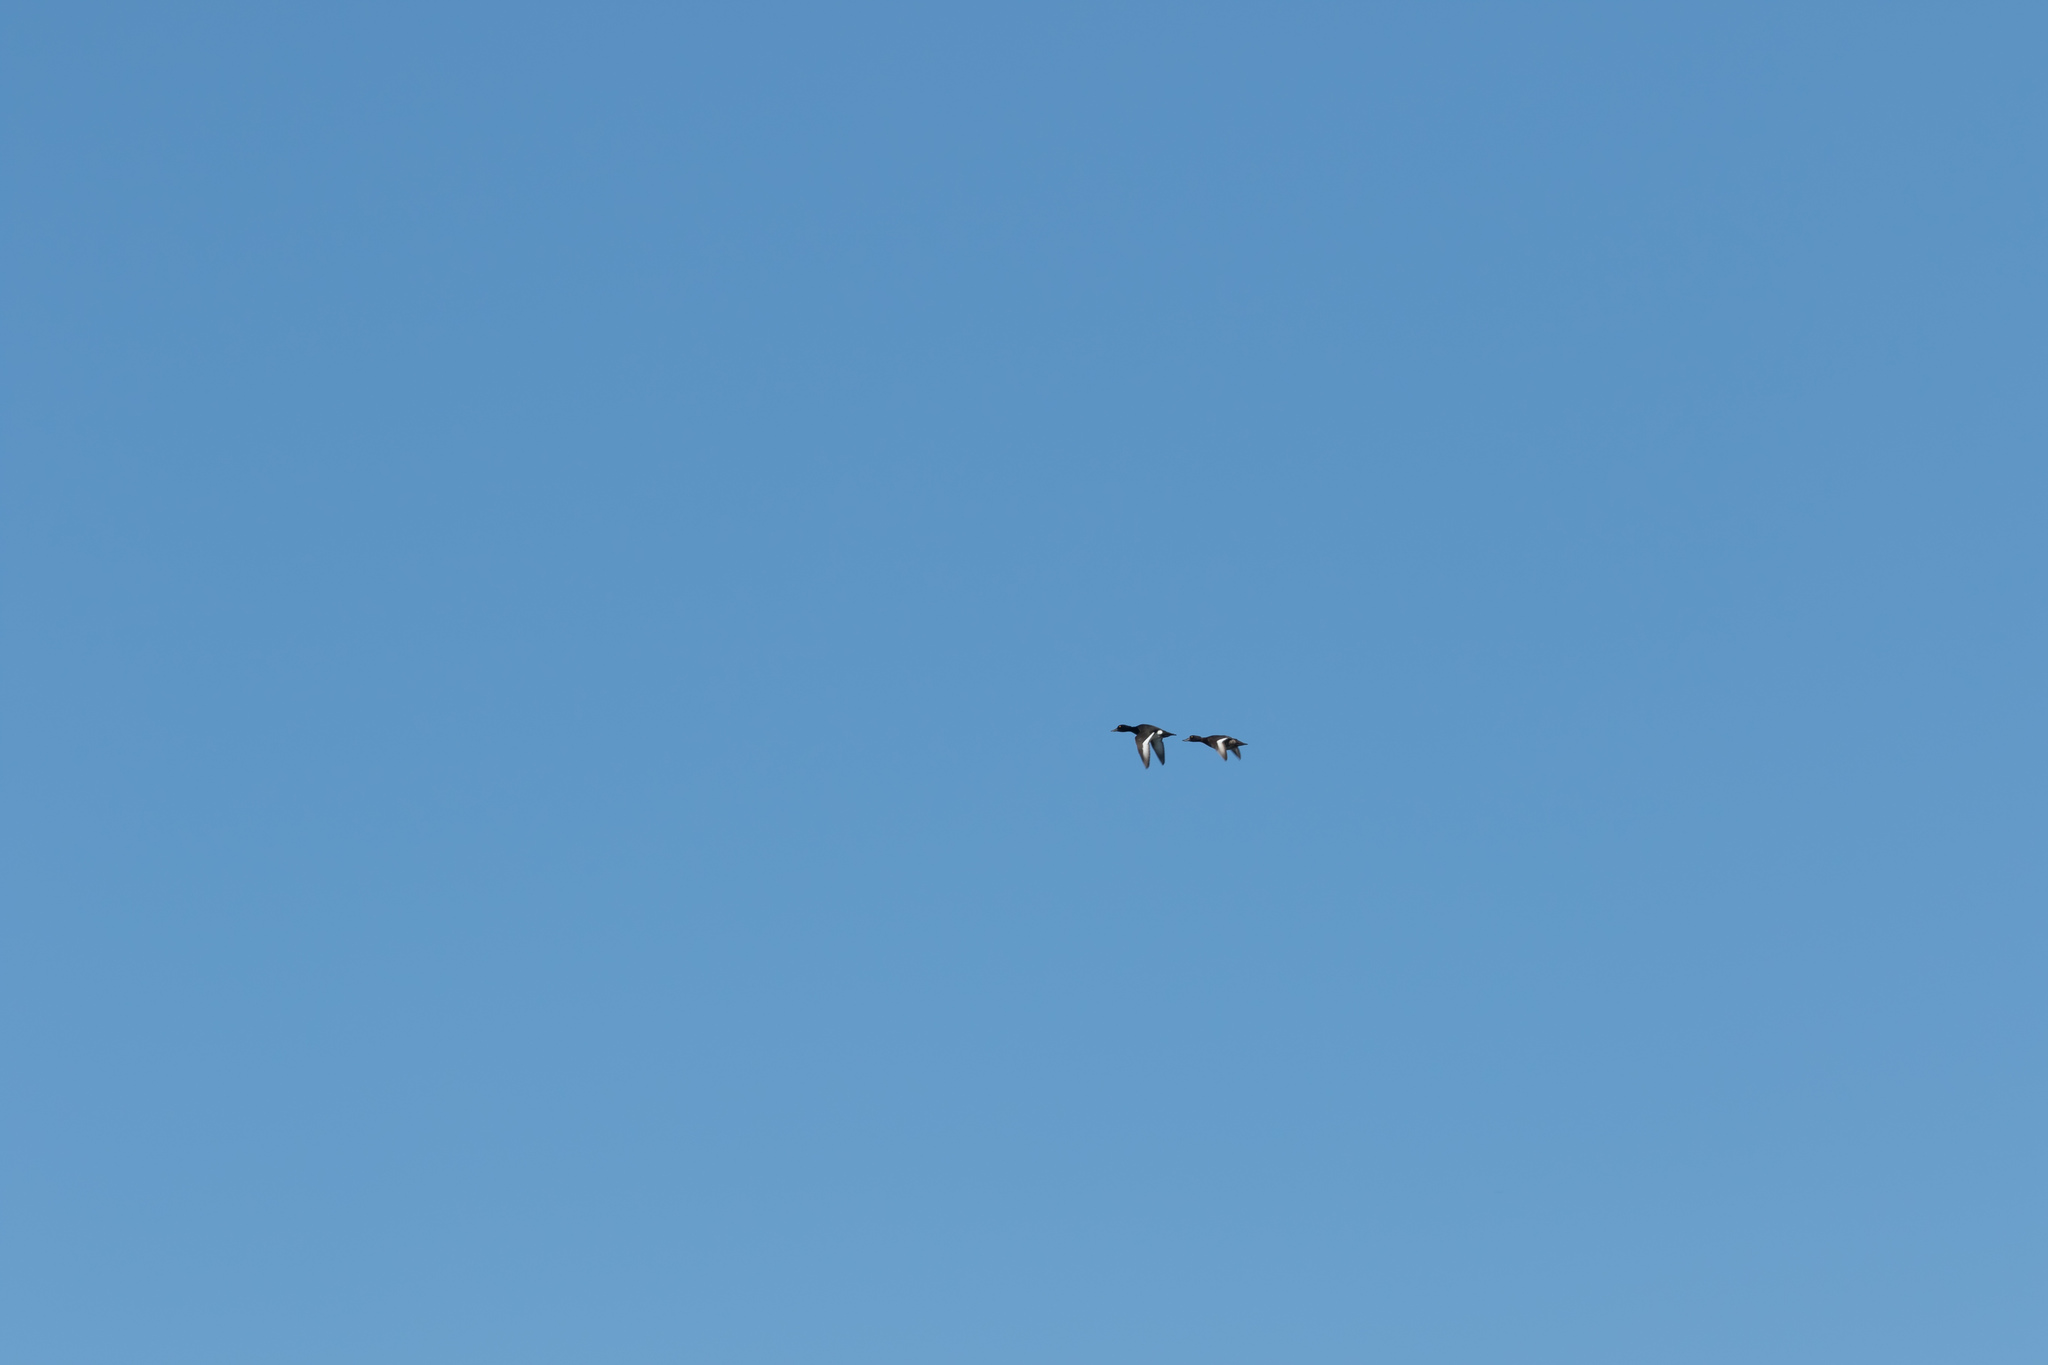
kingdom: Animalia
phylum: Chordata
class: Aves
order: Anseriformes
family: Anatidae
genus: Aythya
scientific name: Aythya fuligula
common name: Tufted duck
